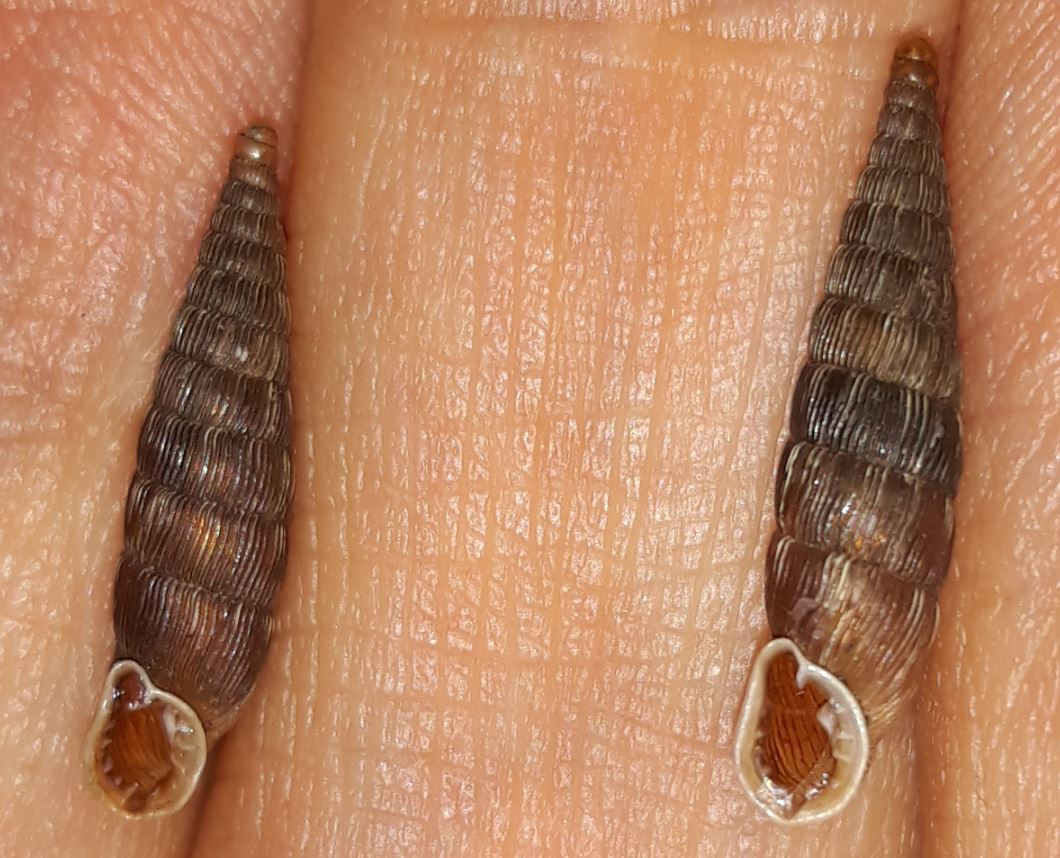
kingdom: Animalia
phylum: Mollusca
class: Gastropoda
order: Stylommatophora
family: Clausiliidae
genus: Laciniaria
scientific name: Laciniaria plicata
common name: Single-lipped door snail
